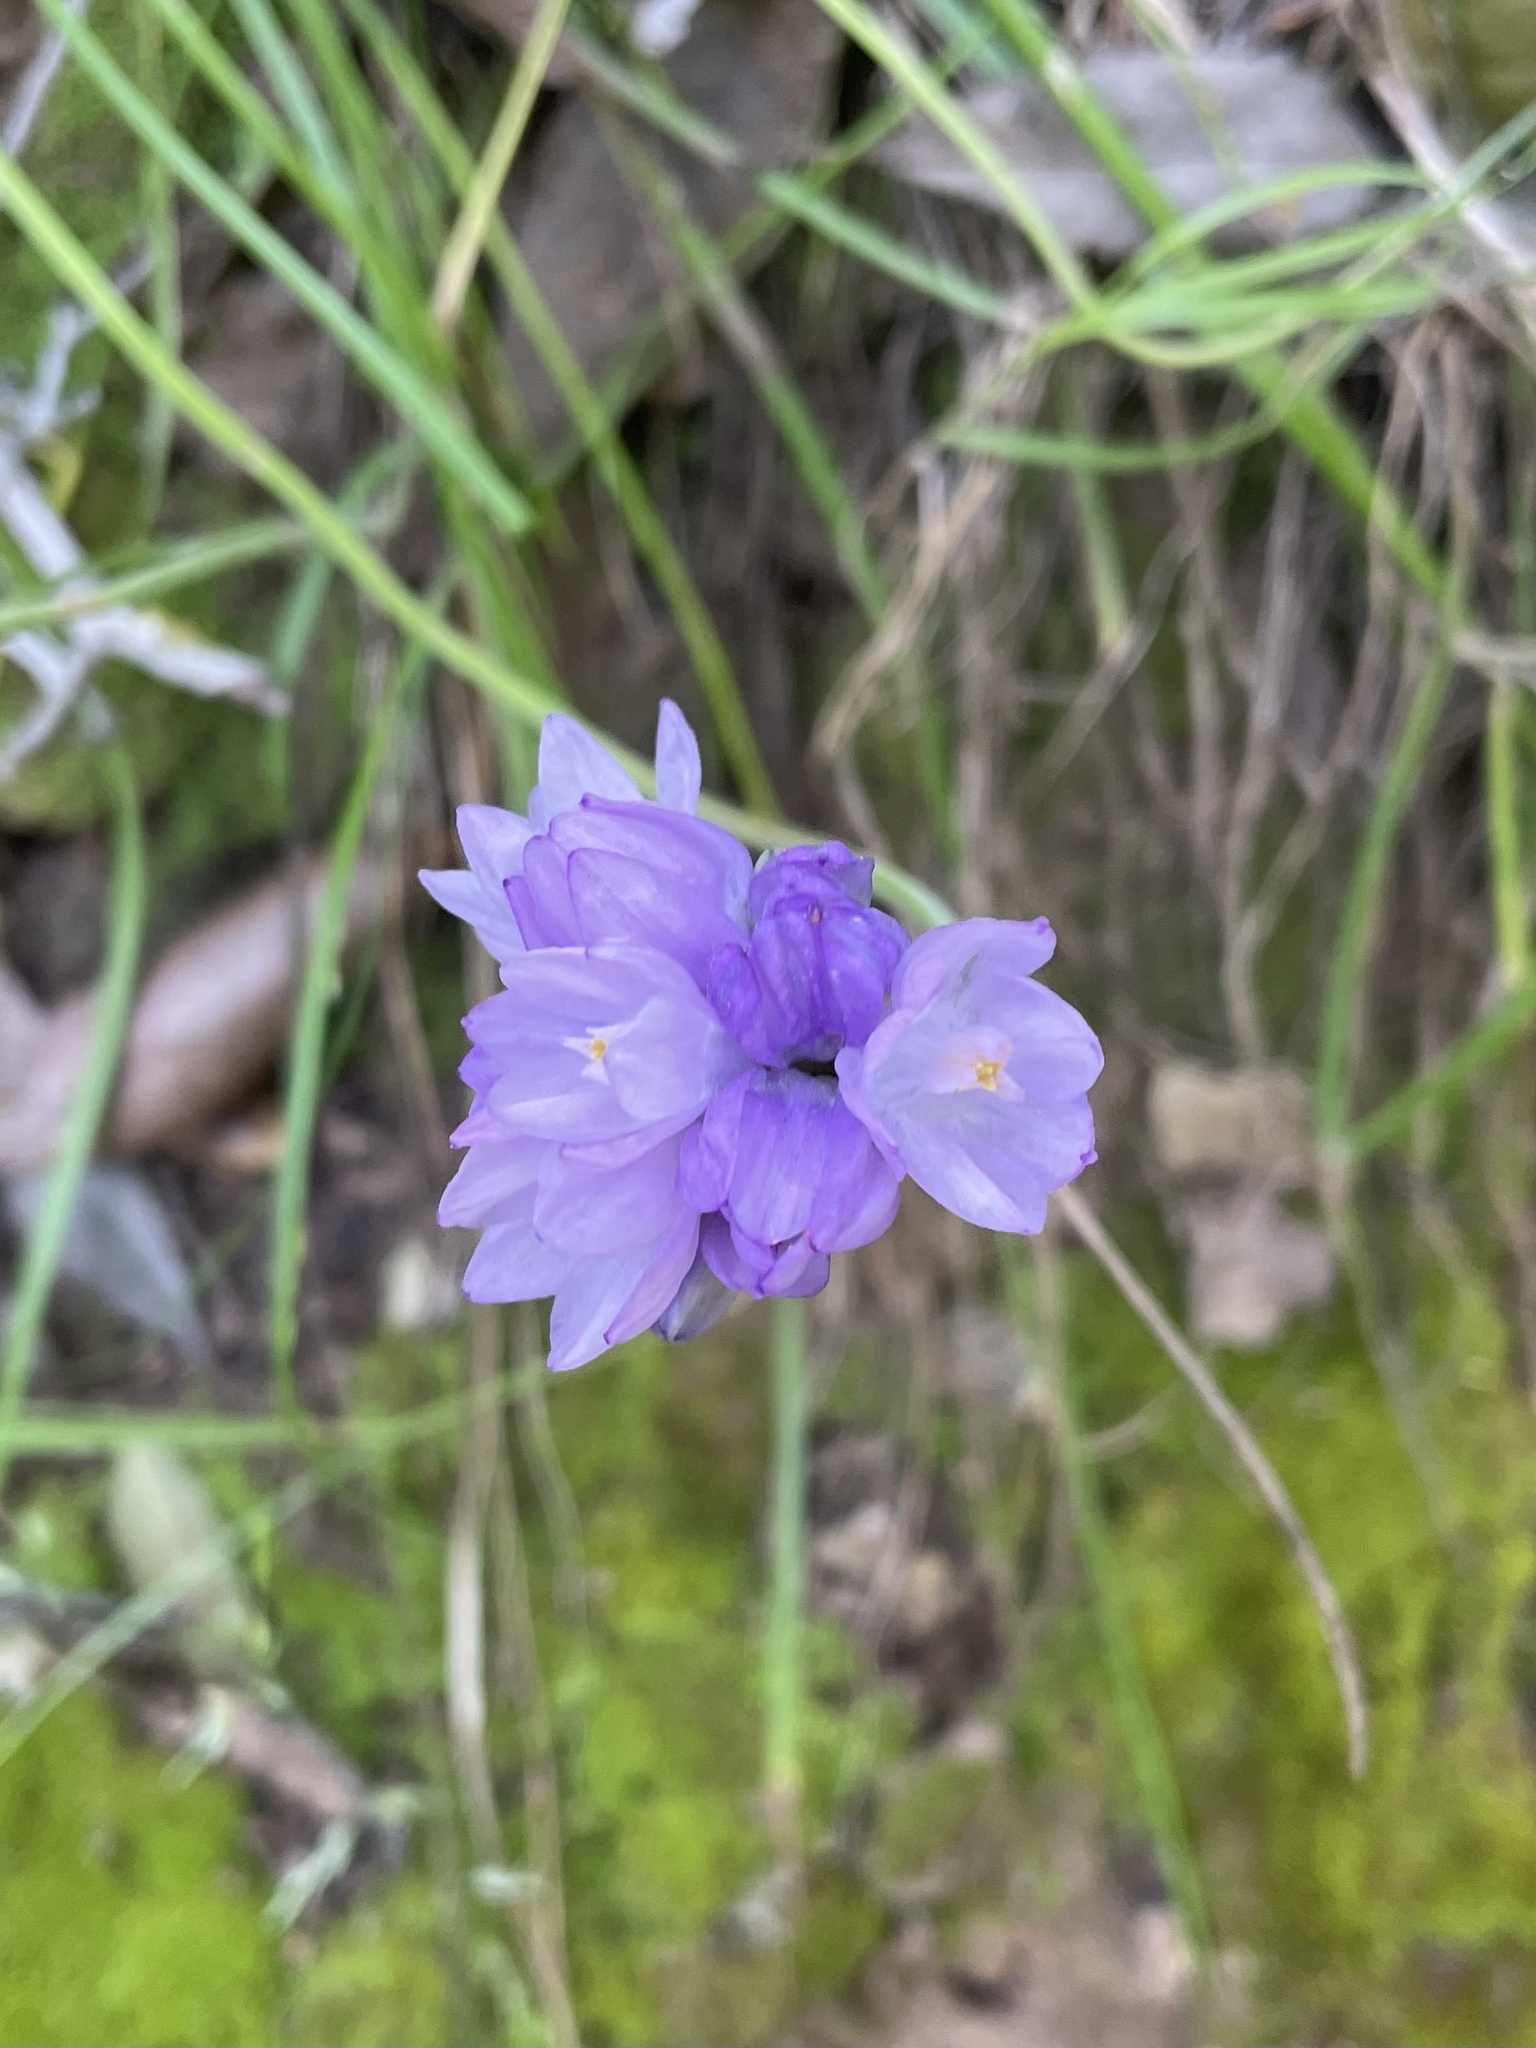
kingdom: Plantae
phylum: Tracheophyta
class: Liliopsida
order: Asparagales
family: Asparagaceae
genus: Dipterostemon
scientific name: Dipterostemon capitatus
